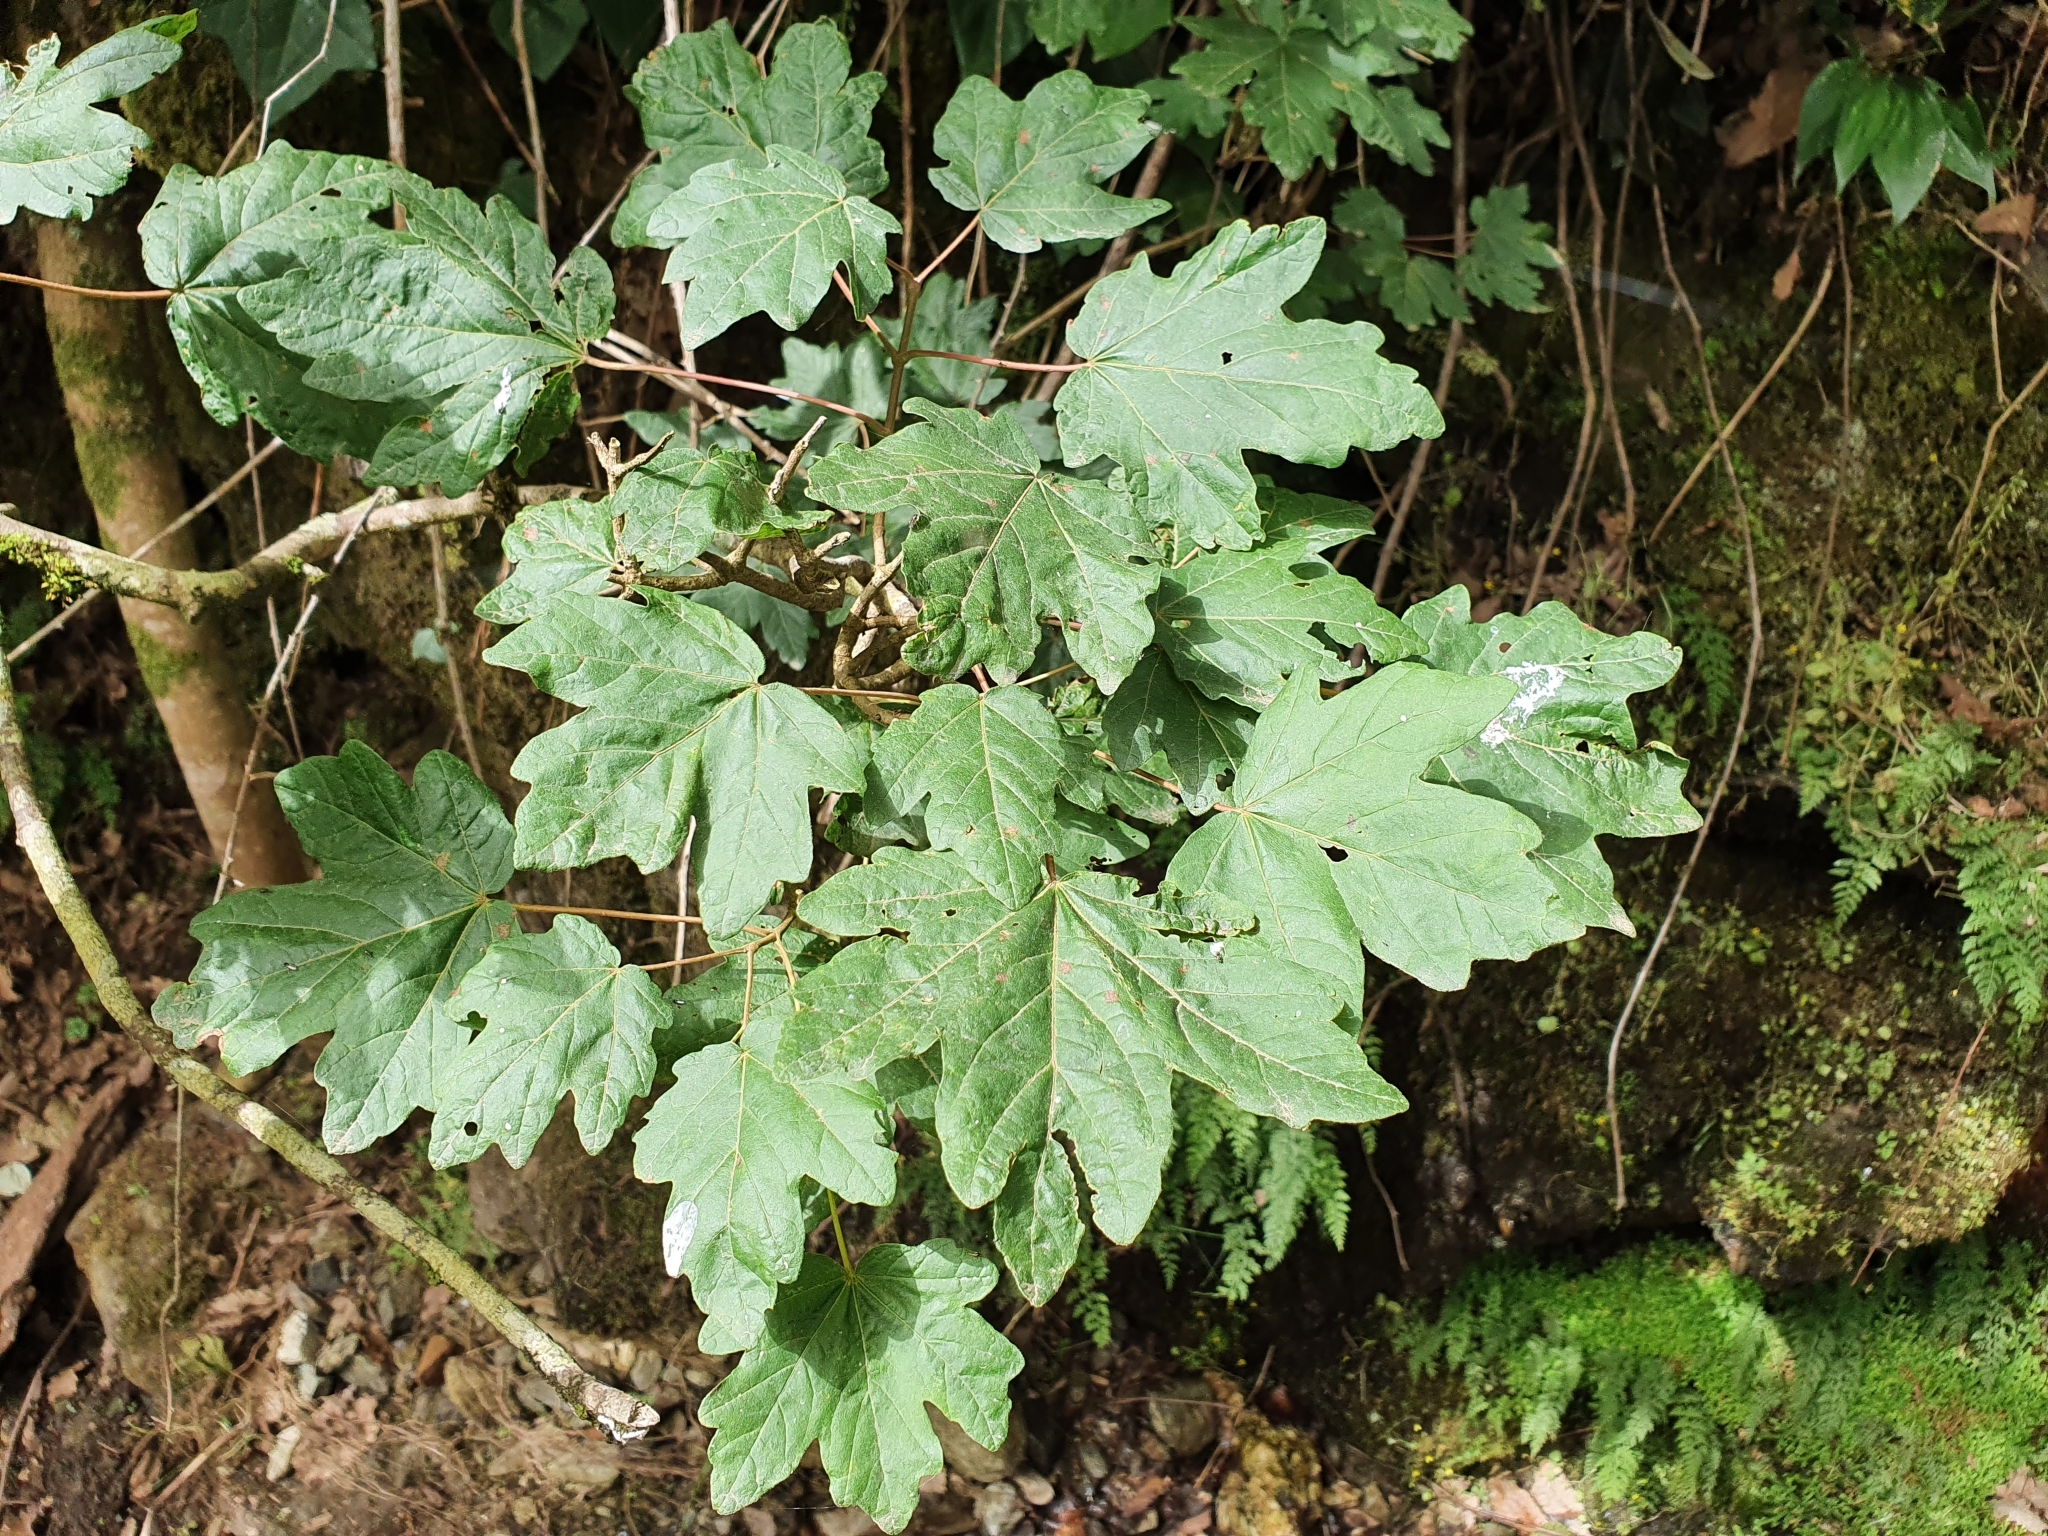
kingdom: Plantae
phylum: Tracheophyta
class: Magnoliopsida
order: Sapindales
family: Sapindaceae
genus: Acer
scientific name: Acer campestre
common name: Field maple
